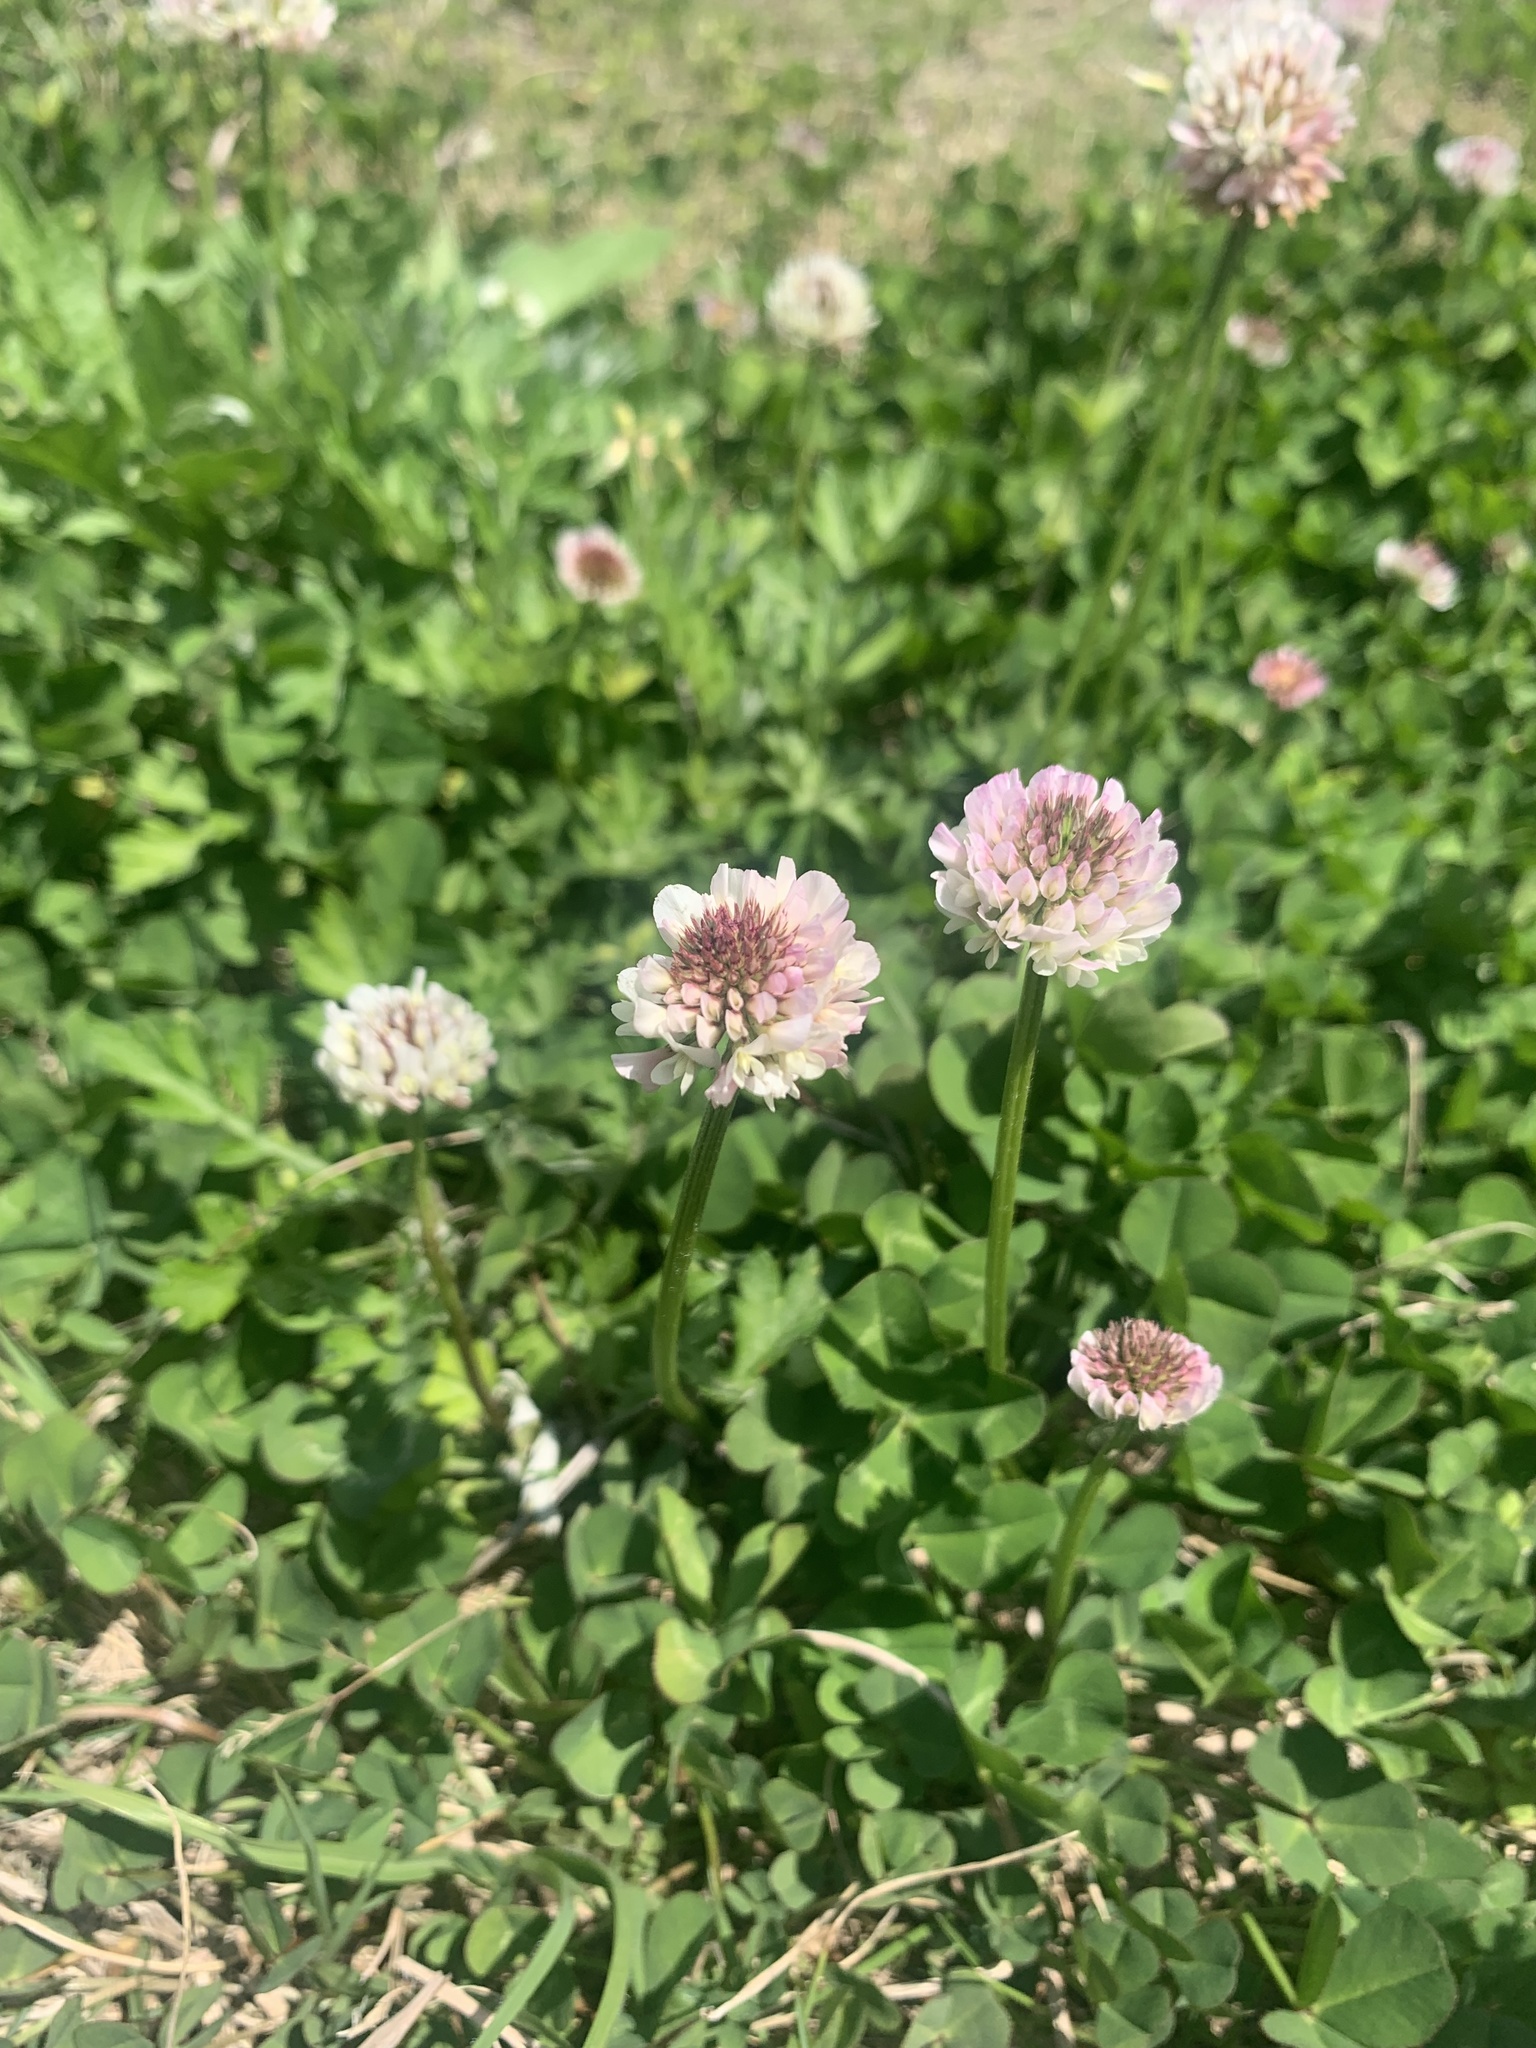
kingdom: Plantae
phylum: Tracheophyta
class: Magnoliopsida
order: Fabales
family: Fabaceae
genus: Trifolium
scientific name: Trifolium repens
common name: White clover
